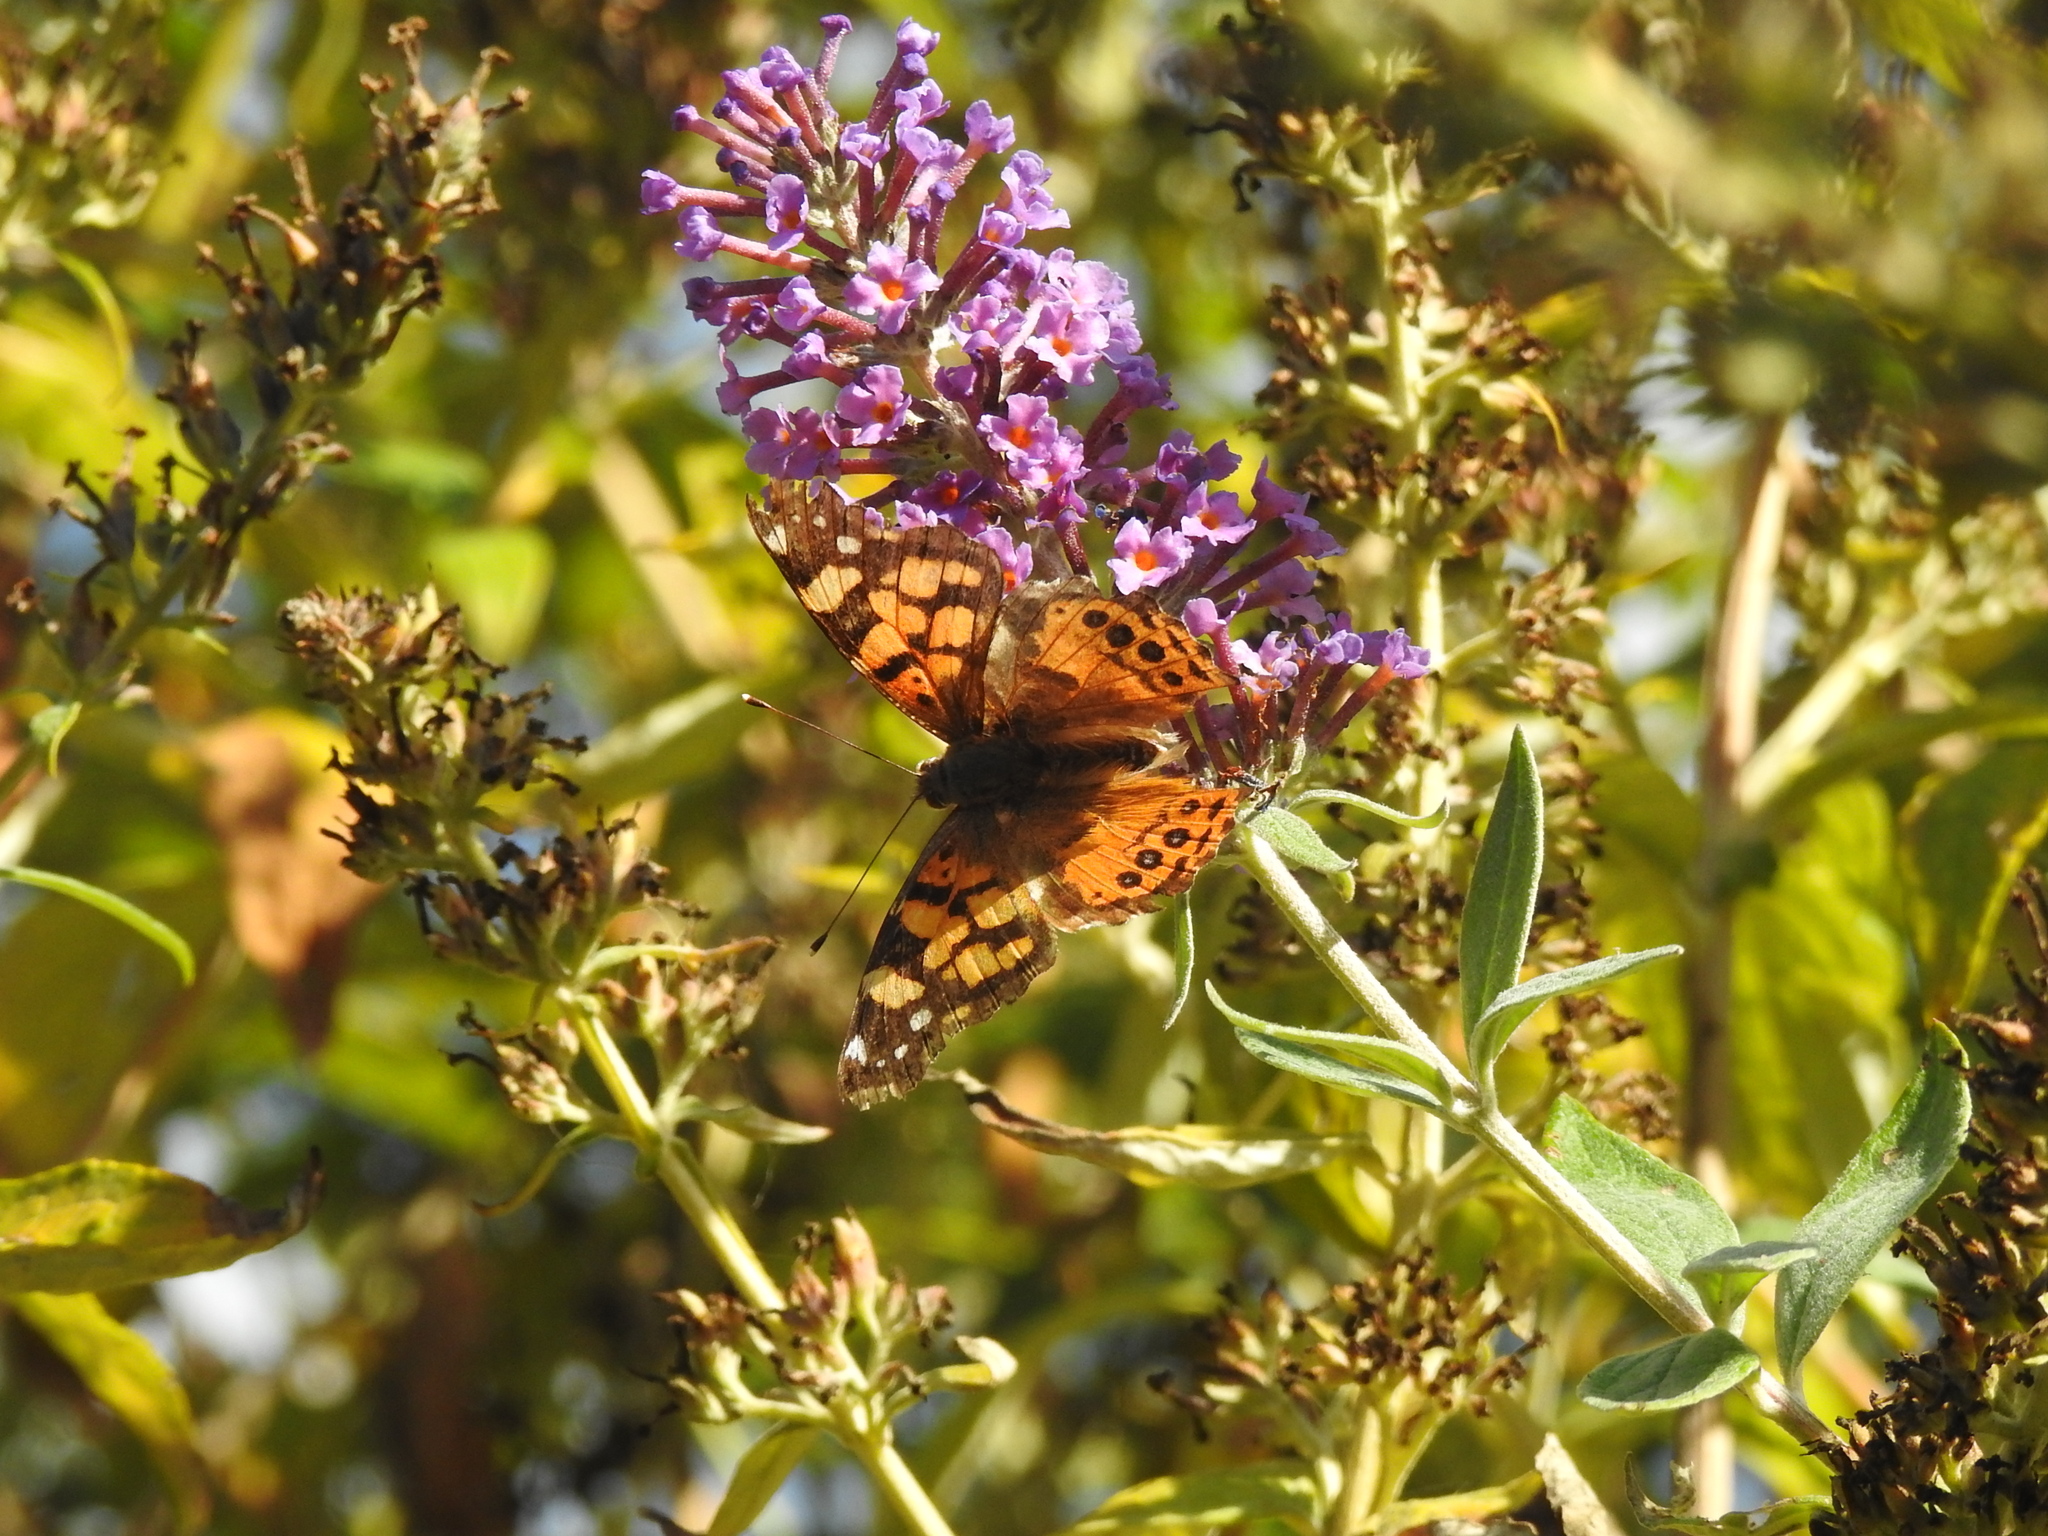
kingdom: Animalia
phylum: Arthropoda
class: Insecta
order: Lepidoptera
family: Nymphalidae
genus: Vanessa
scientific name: Vanessa annabella
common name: West coast lady
